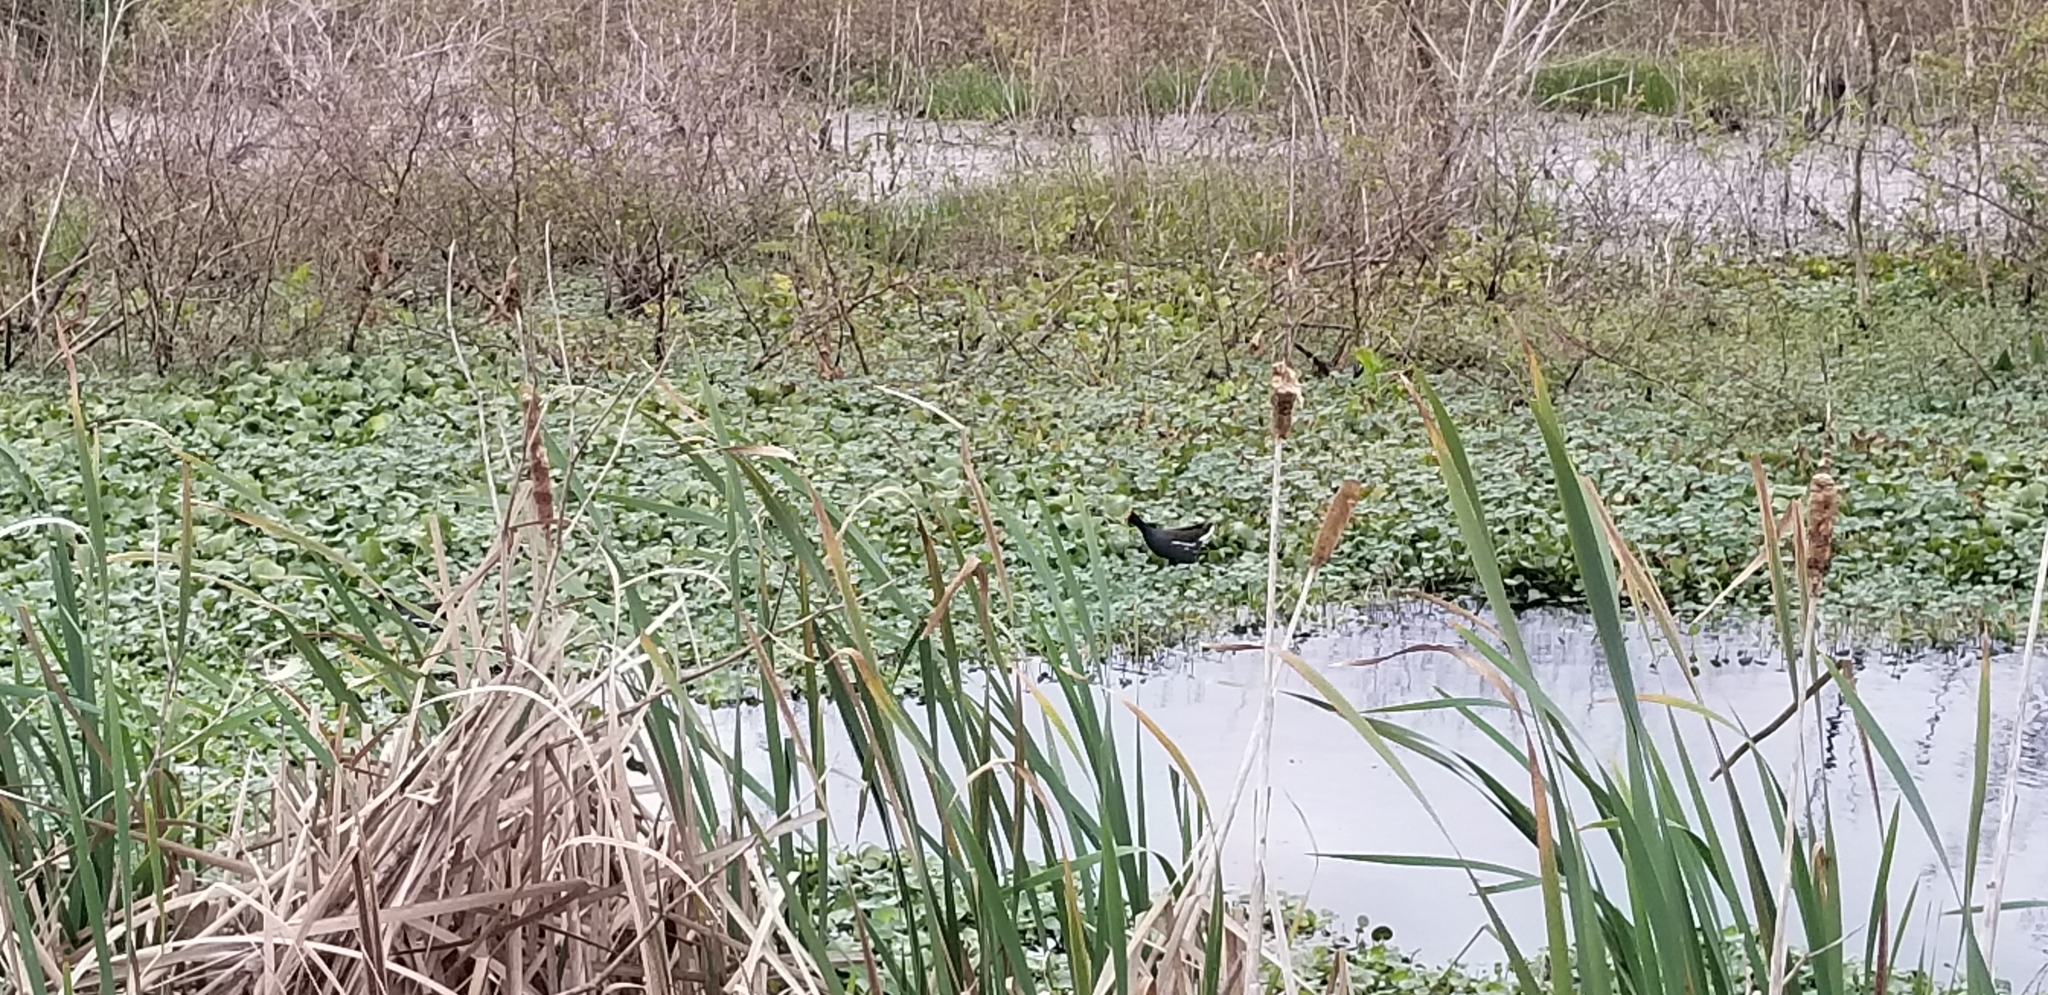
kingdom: Animalia
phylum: Chordata
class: Aves
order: Gruiformes
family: Rallidae
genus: Gallinula
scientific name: Gallinula chloropus
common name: Common moorhen
